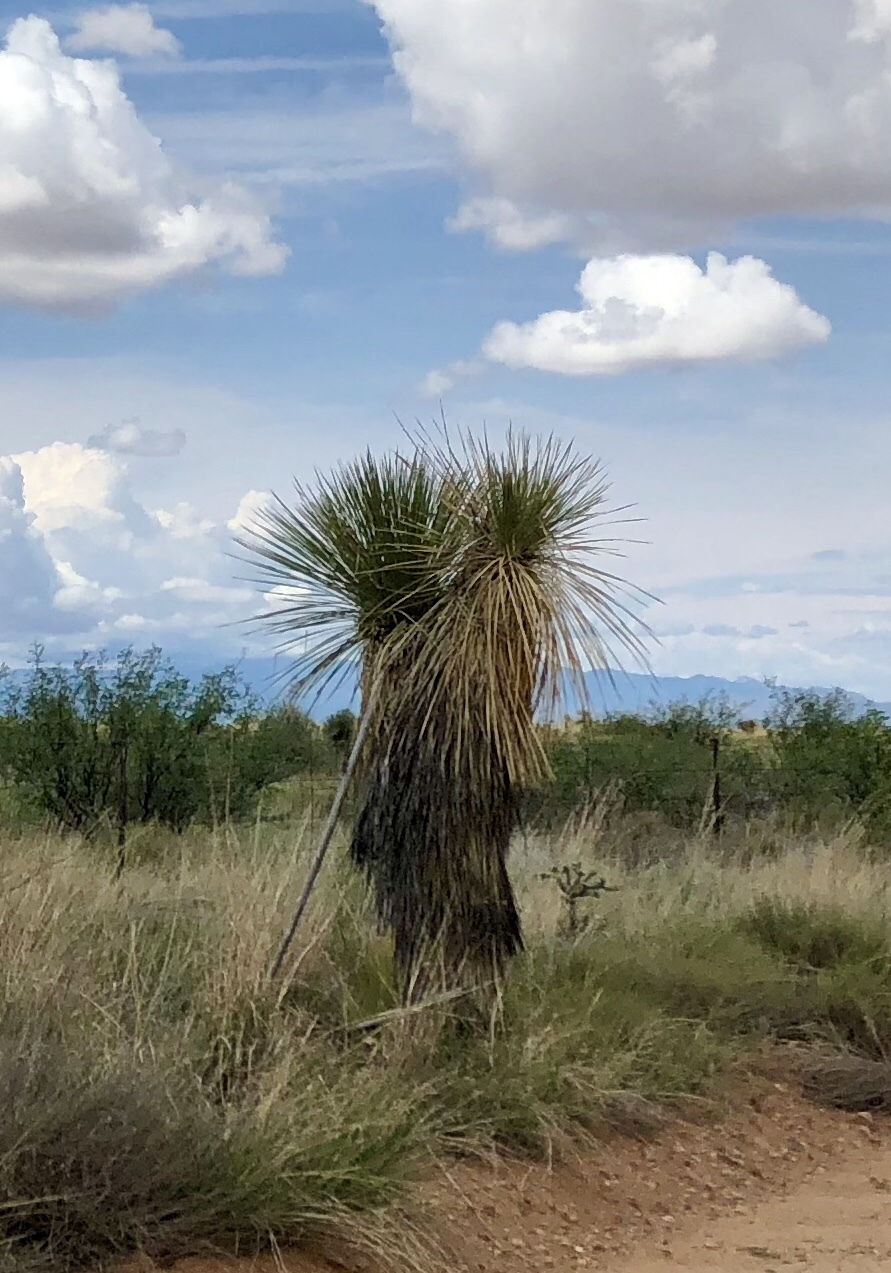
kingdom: Plantae
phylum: Tracheophyta
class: Liliopsida
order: Asparagales
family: Asparagaceae
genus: Yucca
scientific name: Yucca elata
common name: Palmella
